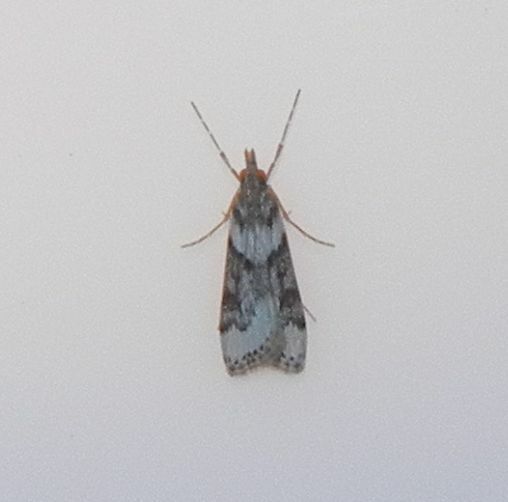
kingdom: Animalia
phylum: Arthropoda
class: Insecta
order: Lepidoptera
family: Crambidae
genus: Eudonia
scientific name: Eudonia angustea
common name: Narrow-winged grey
